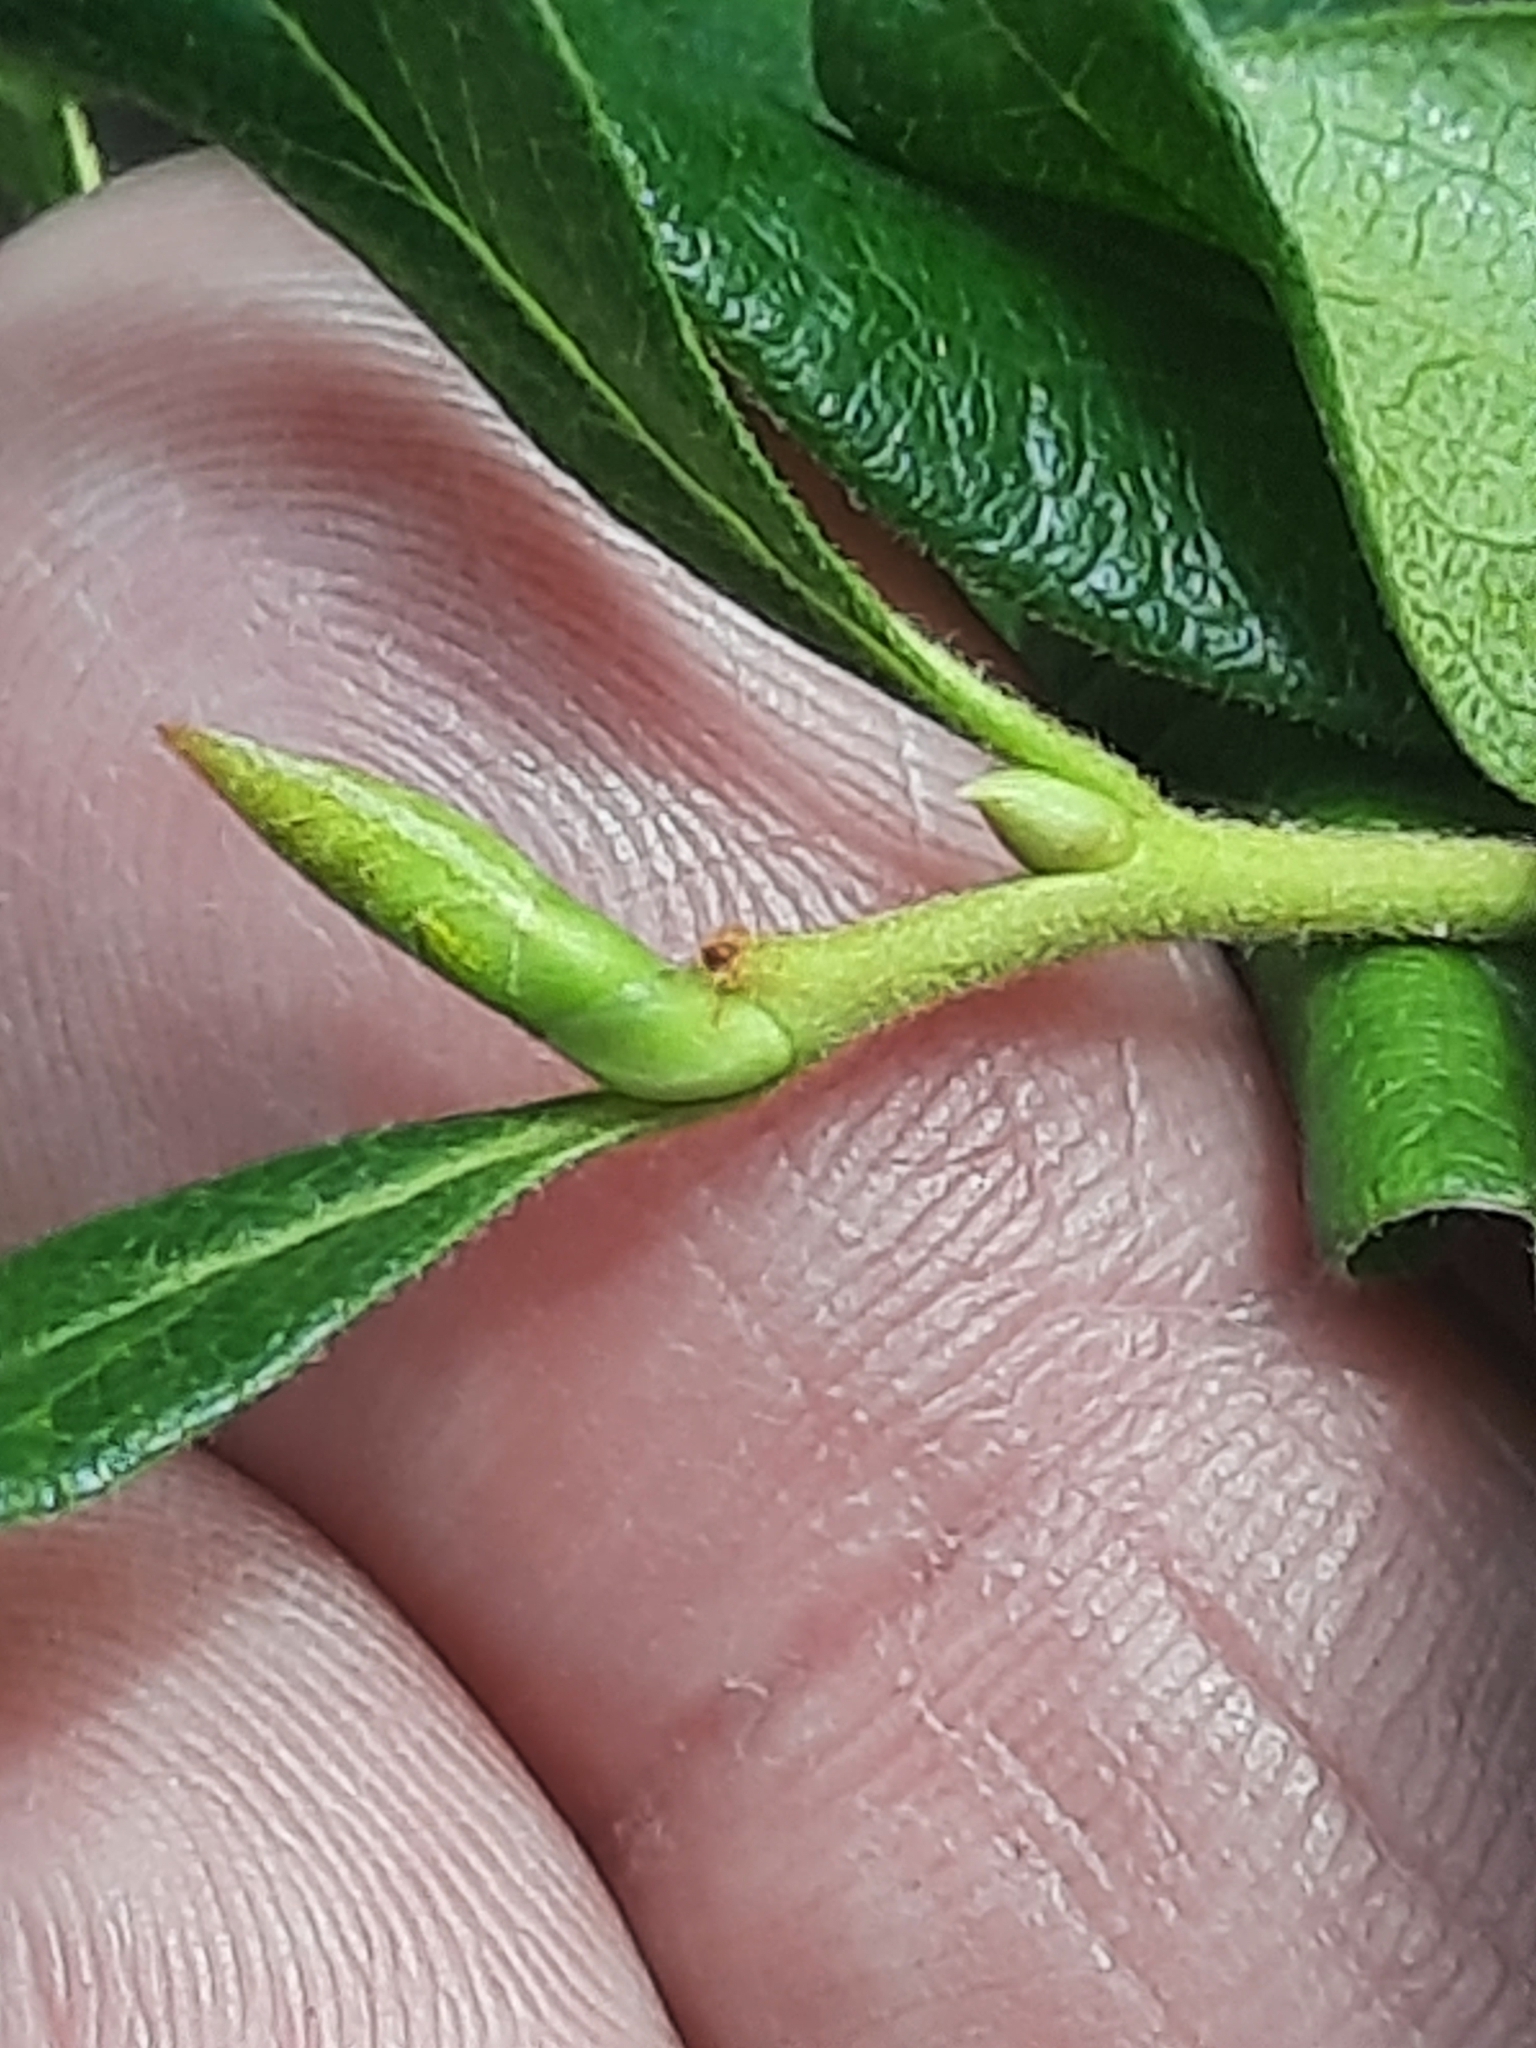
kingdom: Plantae
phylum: Tracheophyta
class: Magnoliopsida
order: Ericales
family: Ericaceae
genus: Gaylussacia
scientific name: Gaylussacia baccata
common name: Black huckleberry
